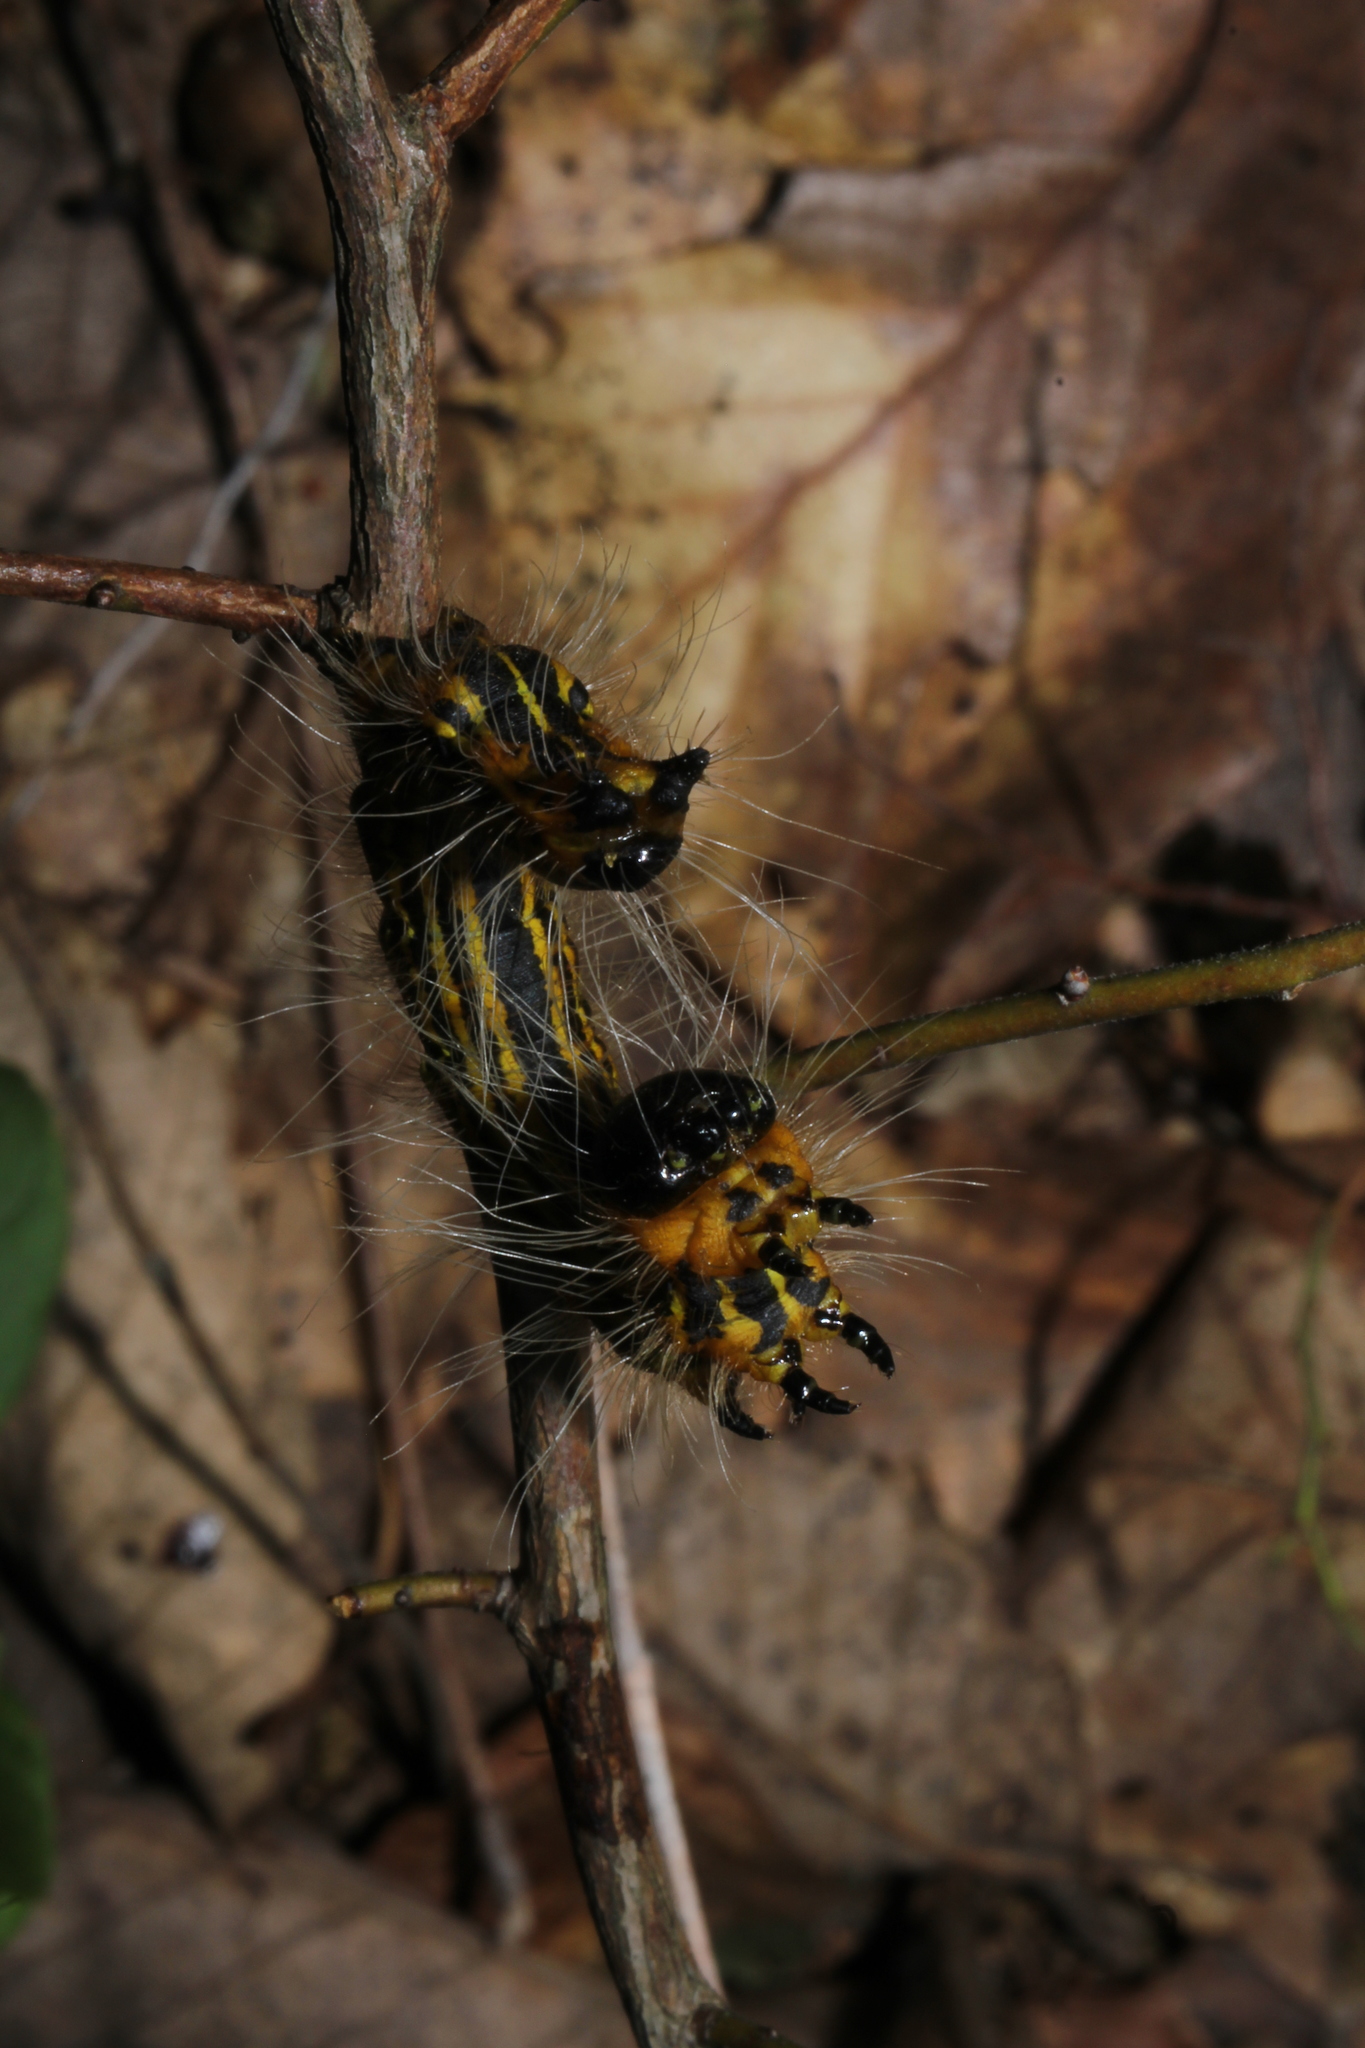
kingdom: Animalia
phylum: Arthropoda
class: Insecta
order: Lepidoptera
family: Notodontidae
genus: Datana
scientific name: Datana drexelii
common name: Drexel's datana
